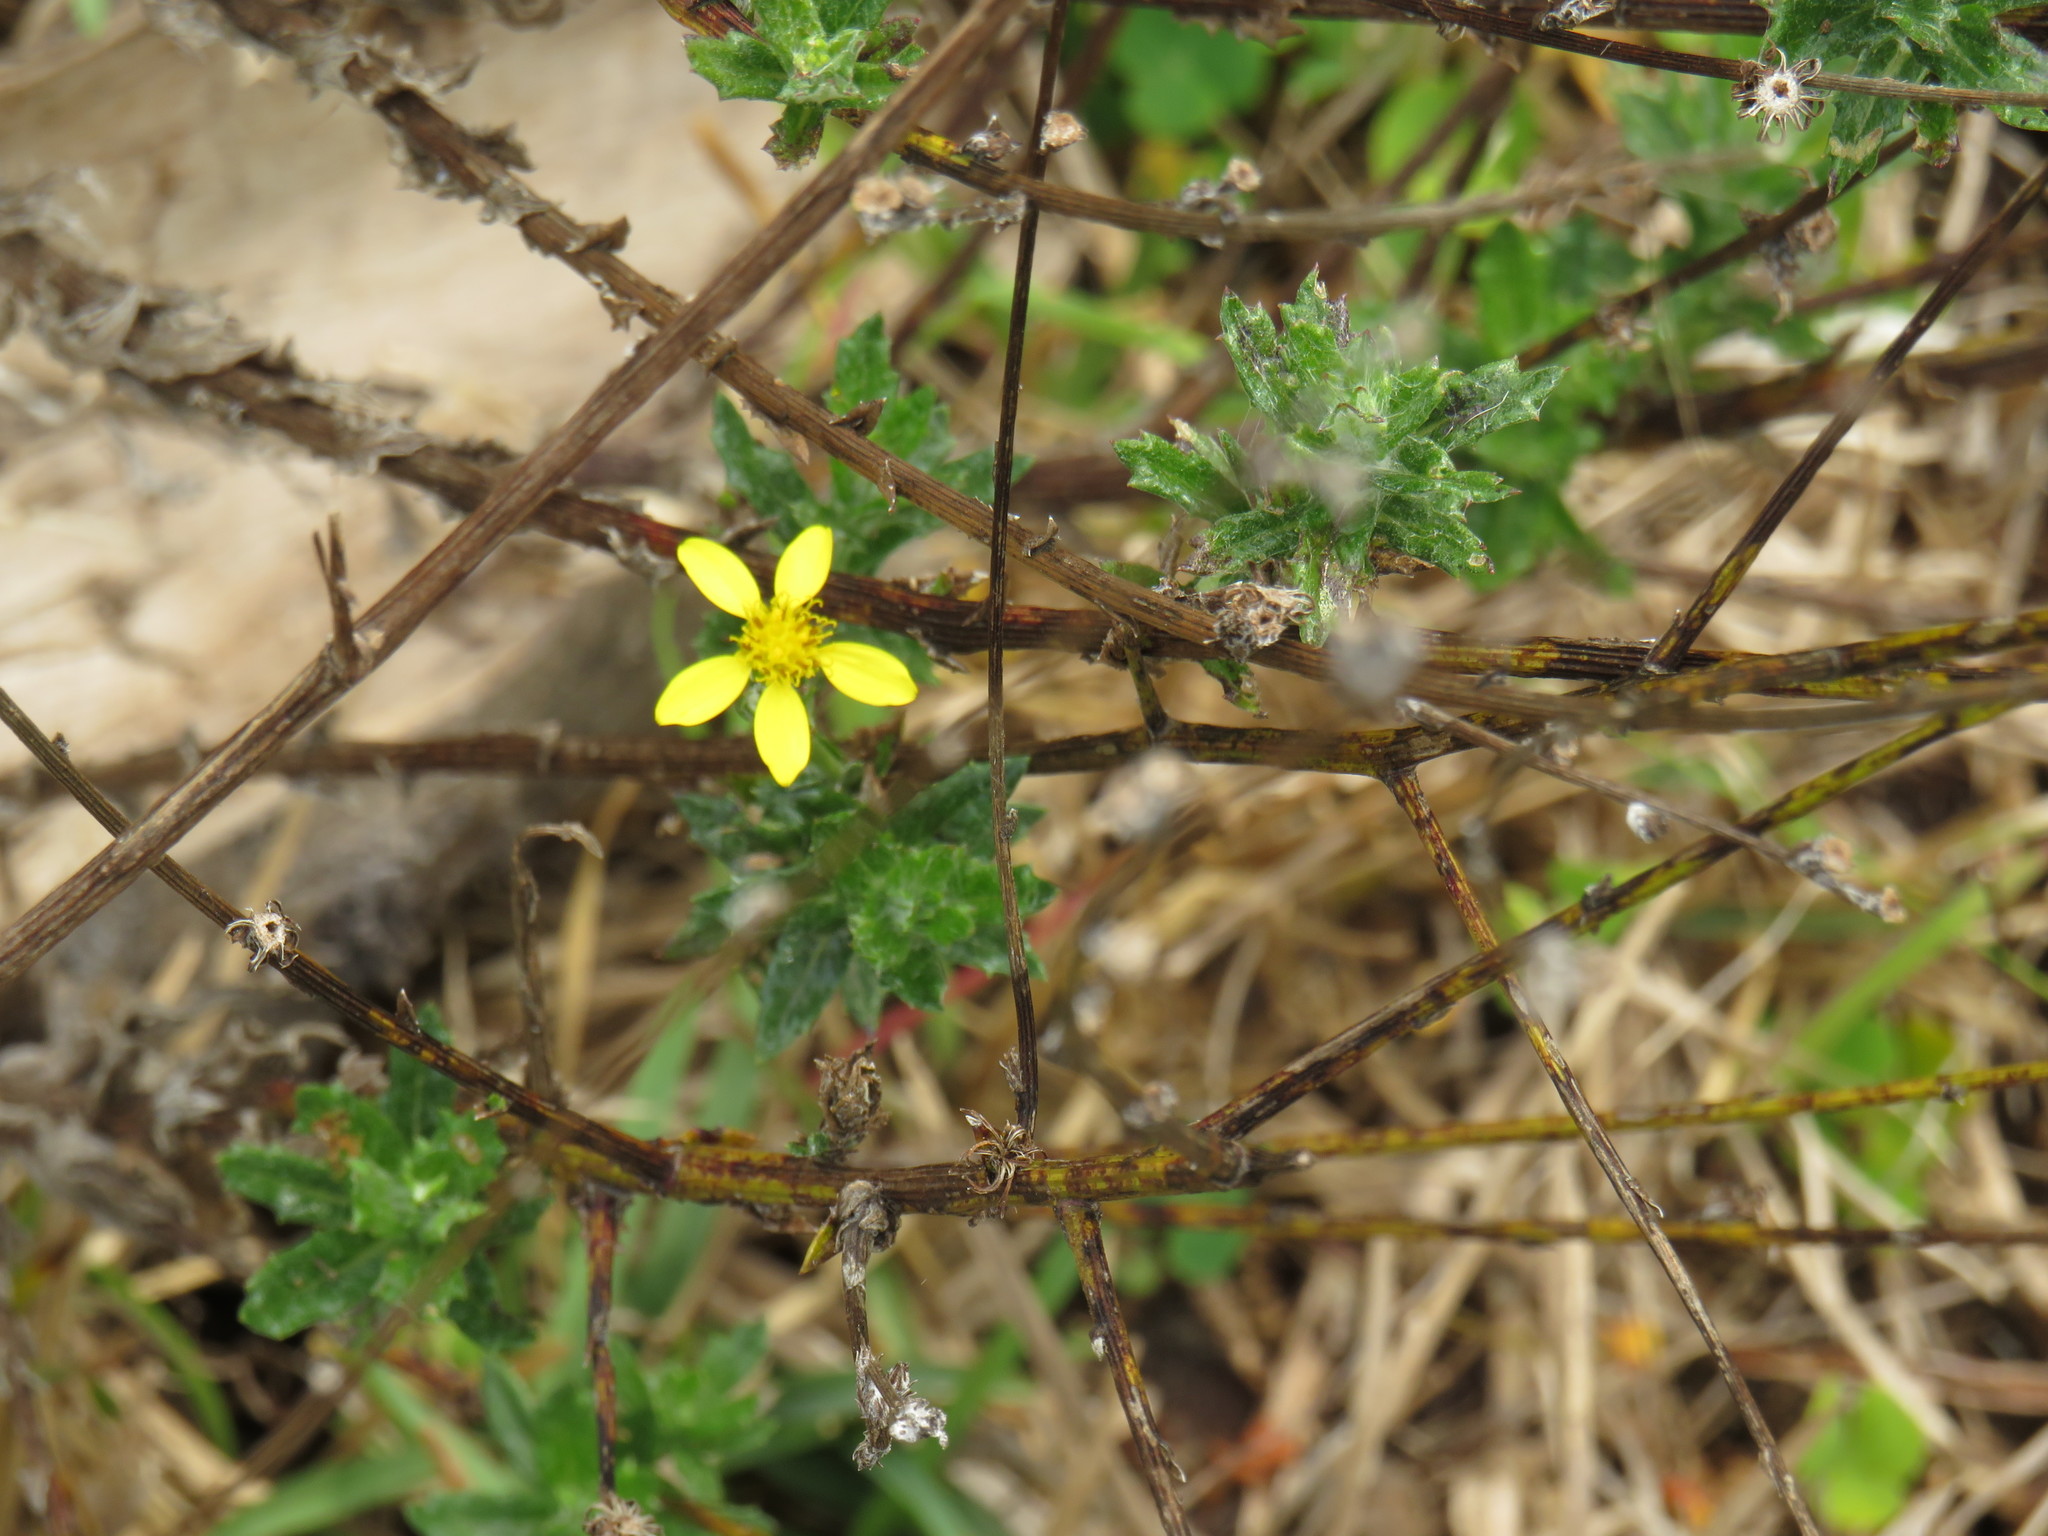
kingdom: Plantae
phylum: Tracheophyta
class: Magnoliopsida
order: Asterales
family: Asteraceae
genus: Senecio
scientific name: Senecio pubigerus
